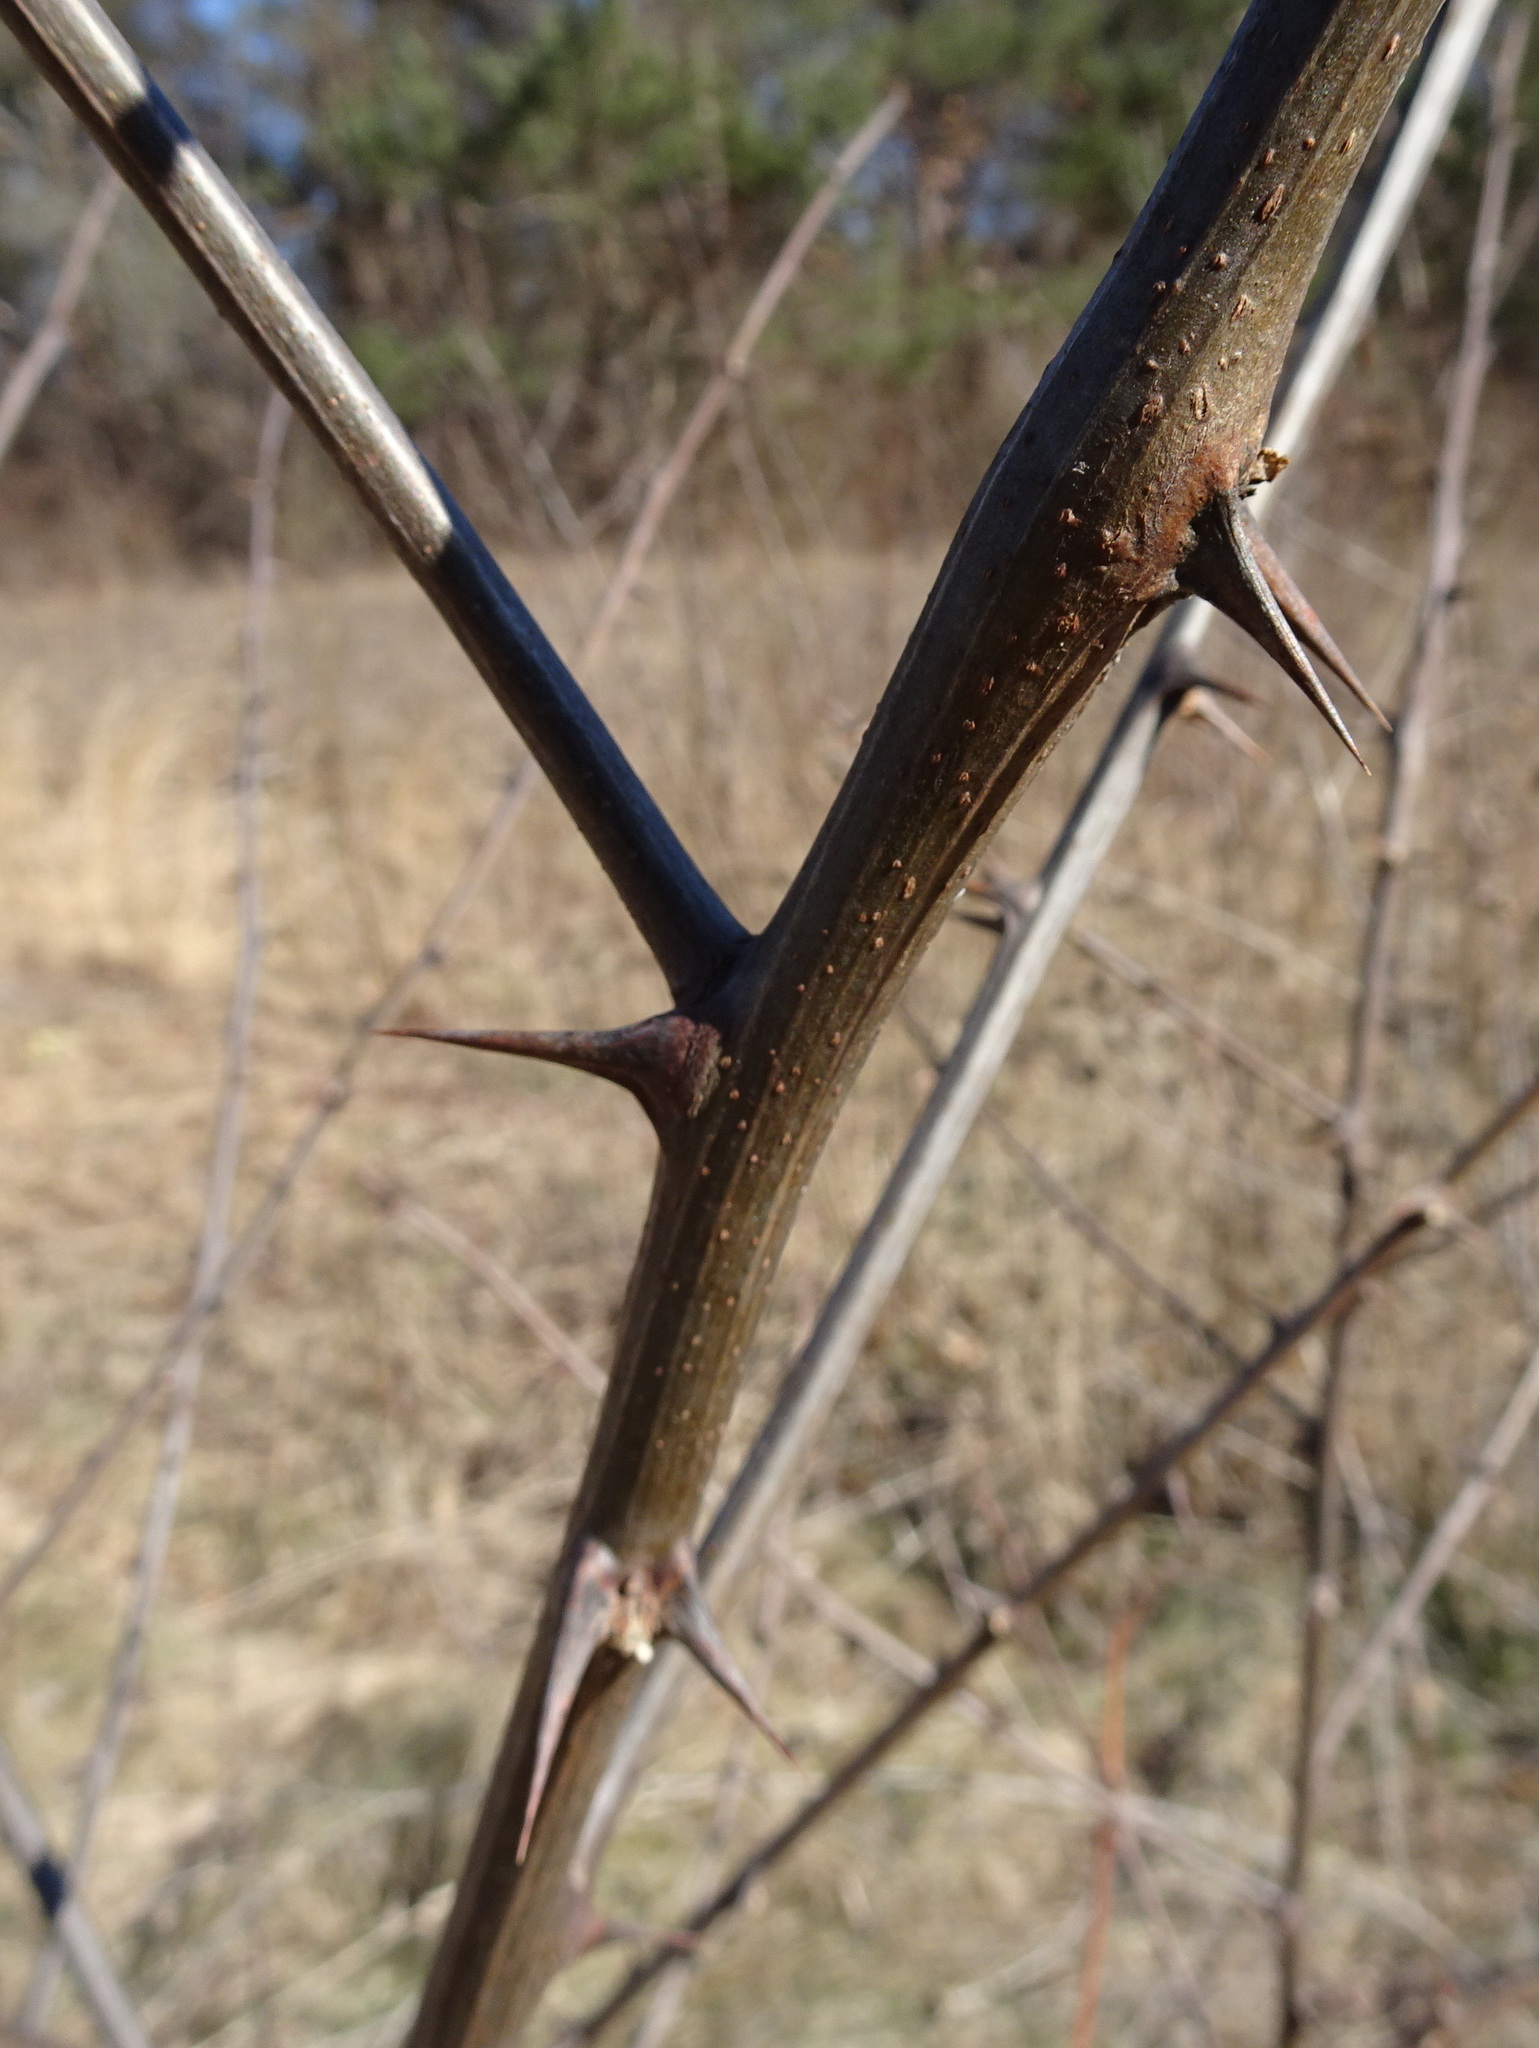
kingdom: Plantae
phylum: Tracheophyta
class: Magnoliopsida
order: Fabales
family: Fabaceae
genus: Robinia
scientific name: Robinia pseudoacacia
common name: Black locust
